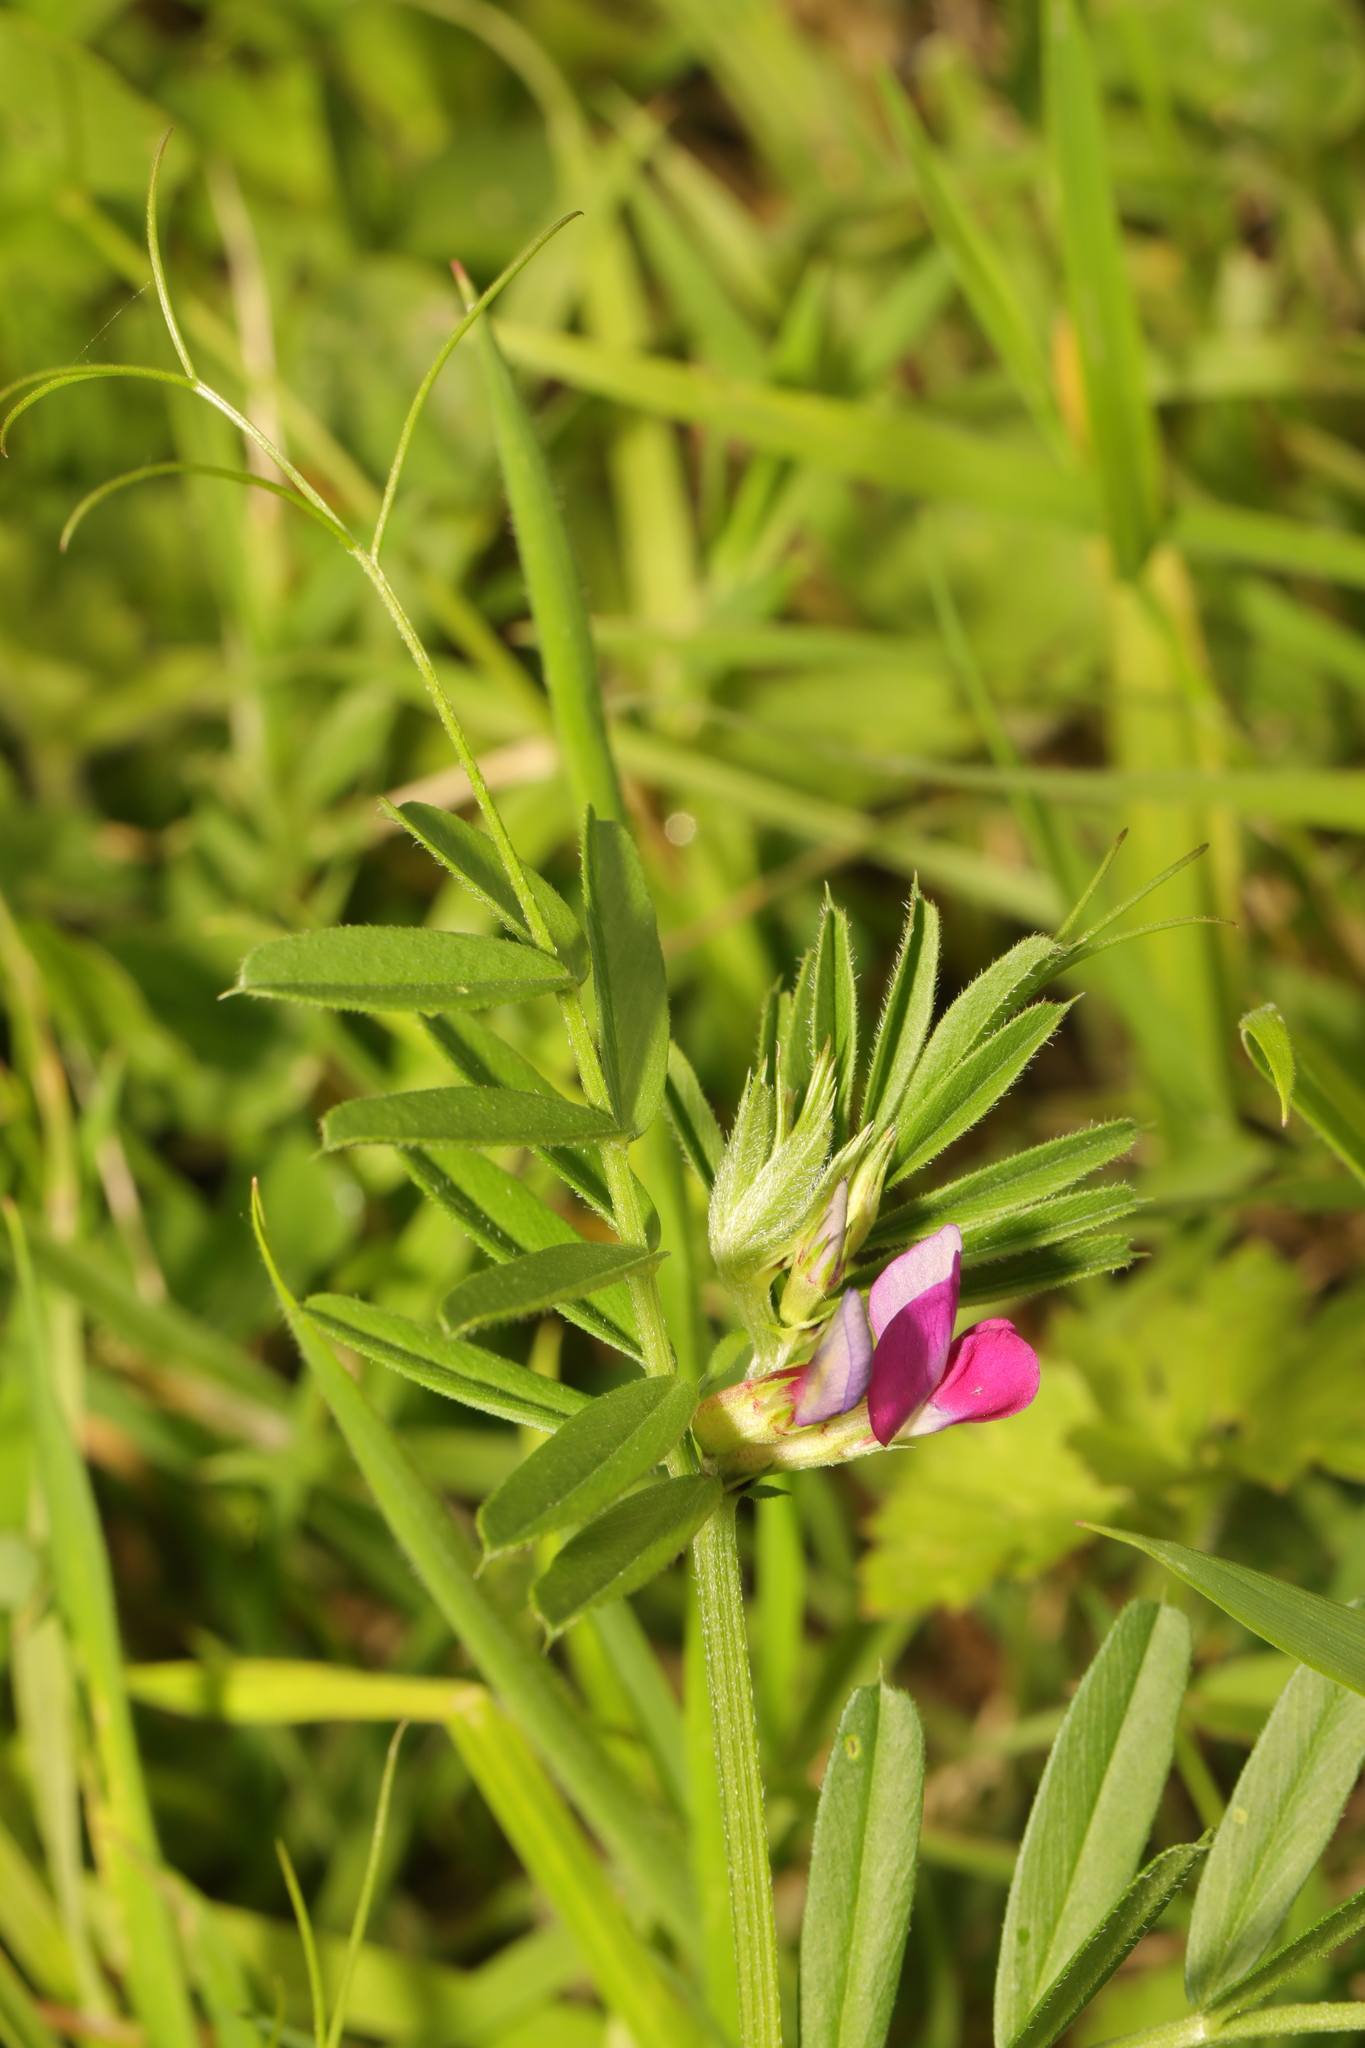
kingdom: Plantae
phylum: Tracheophyta
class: Magnoliopsida
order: Fabales
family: Fabaceae
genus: Vicia
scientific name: Vicia sativa
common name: Garden vetch
